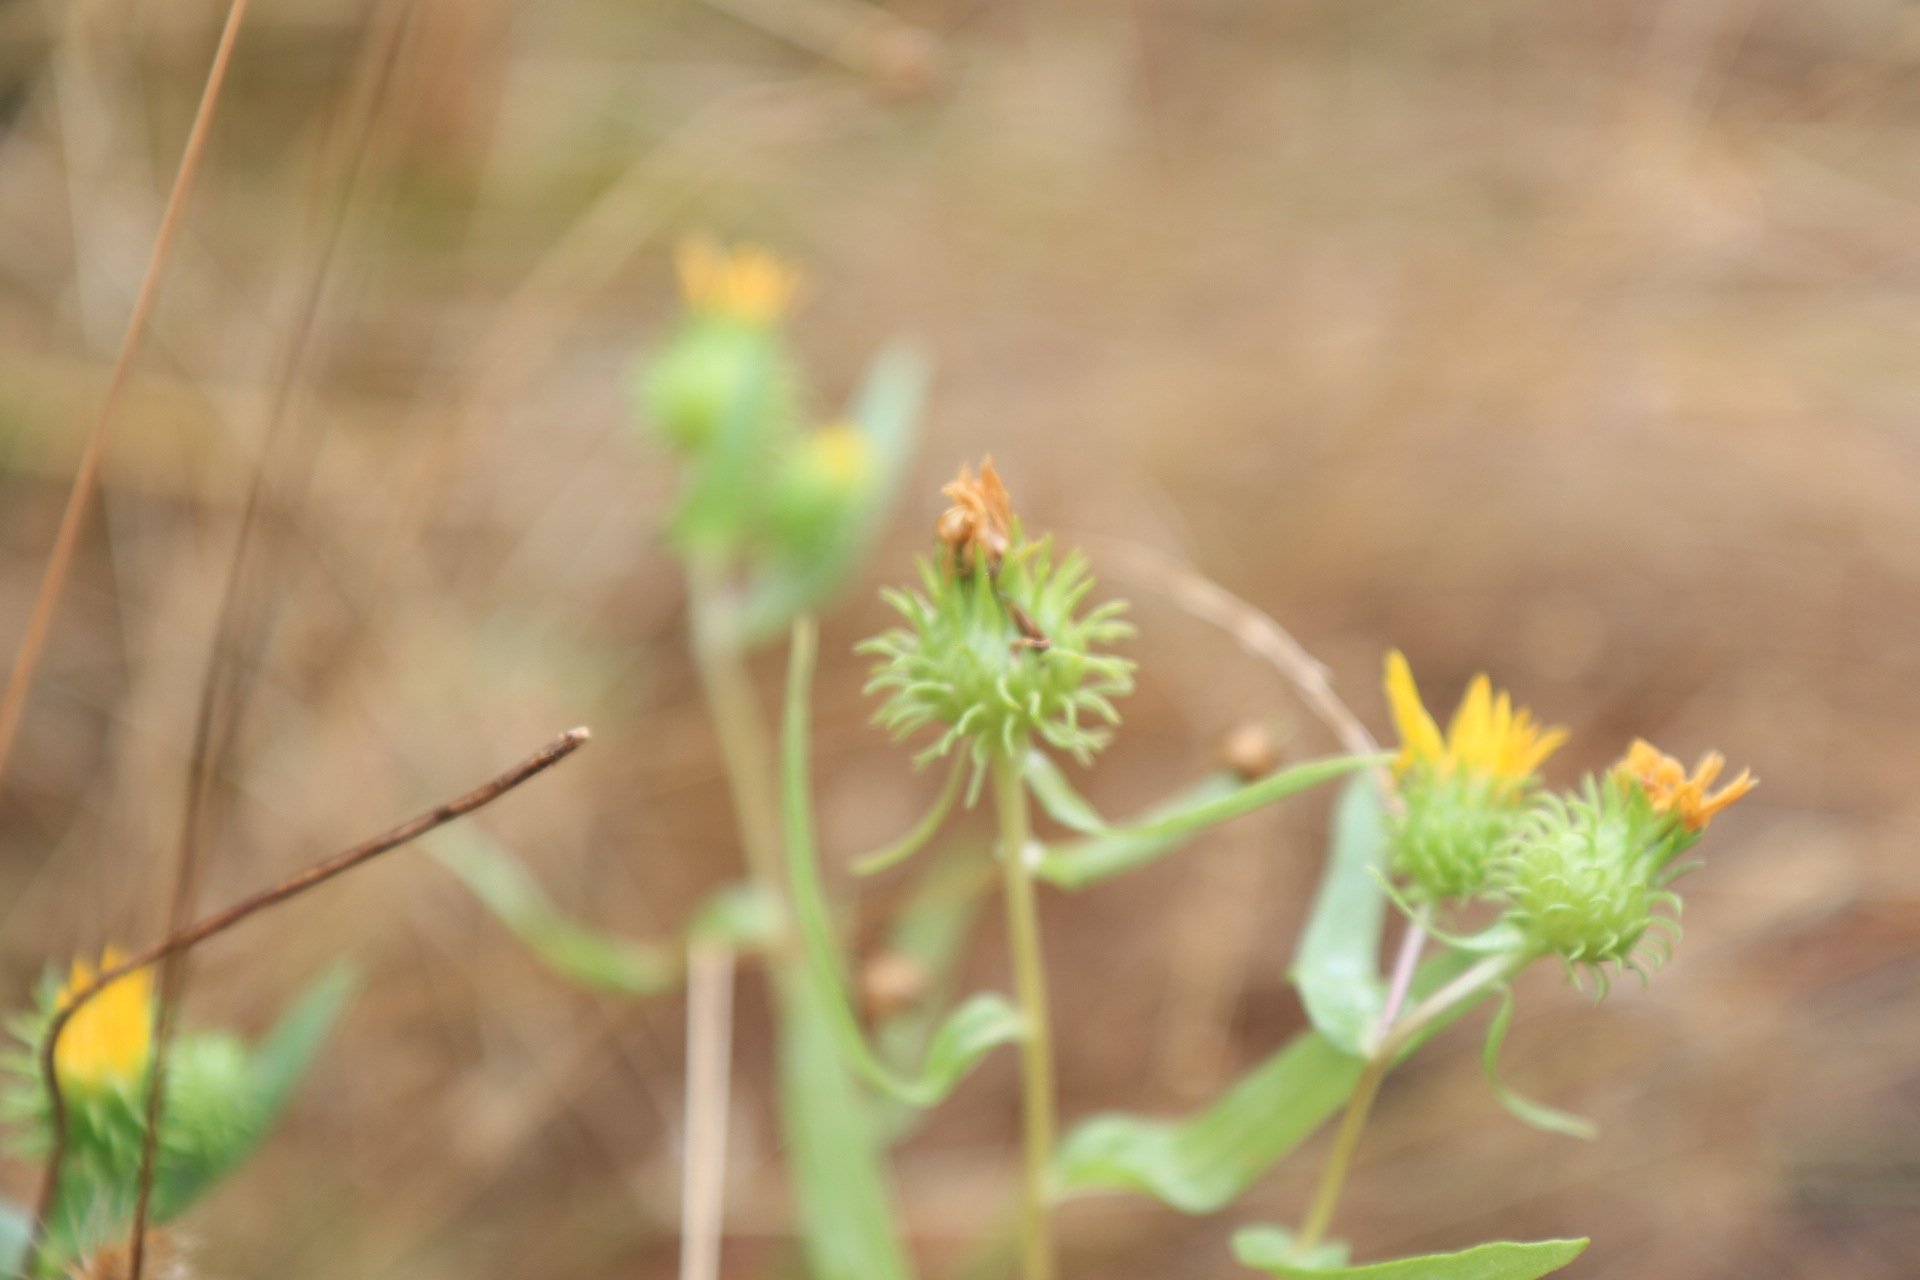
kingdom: Plantae
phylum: Tracheophyta
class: Magnoliopsida
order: Asterales
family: Asteraceae
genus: Grindelia
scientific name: Grindelia integrifolia
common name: Puget sound gumweed
